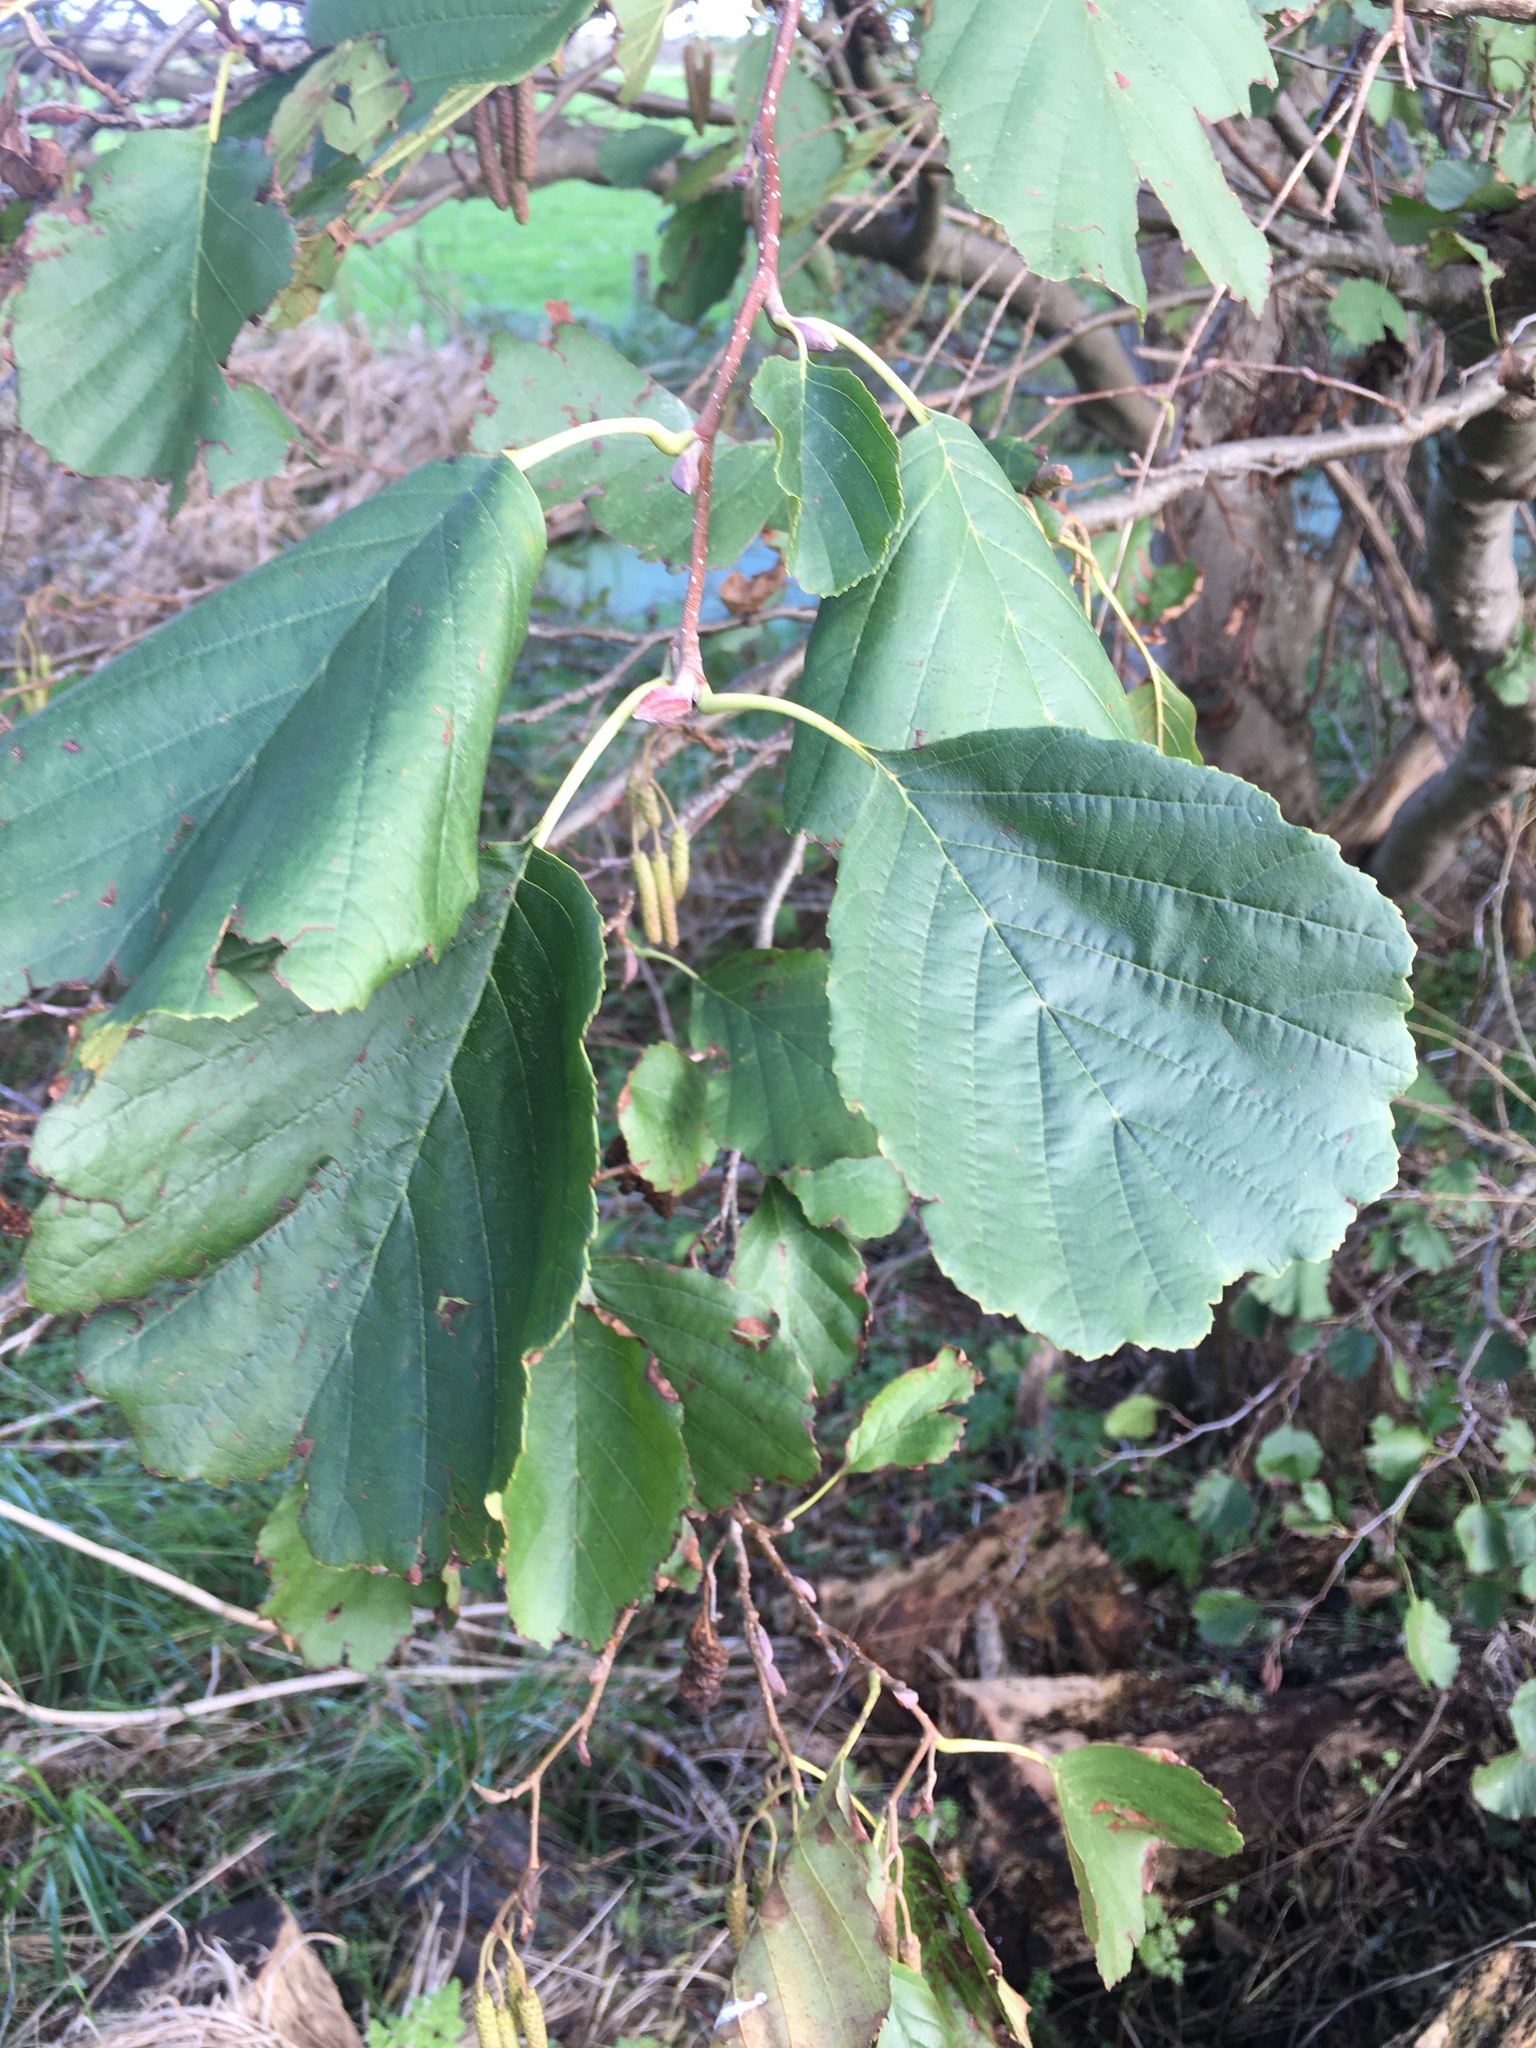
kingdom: Plantae
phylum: Tracheophyta
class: Magnoliopsida
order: Fagales
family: Betulaceae
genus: Alnus
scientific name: Alnus glutinosa
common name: Black alder
